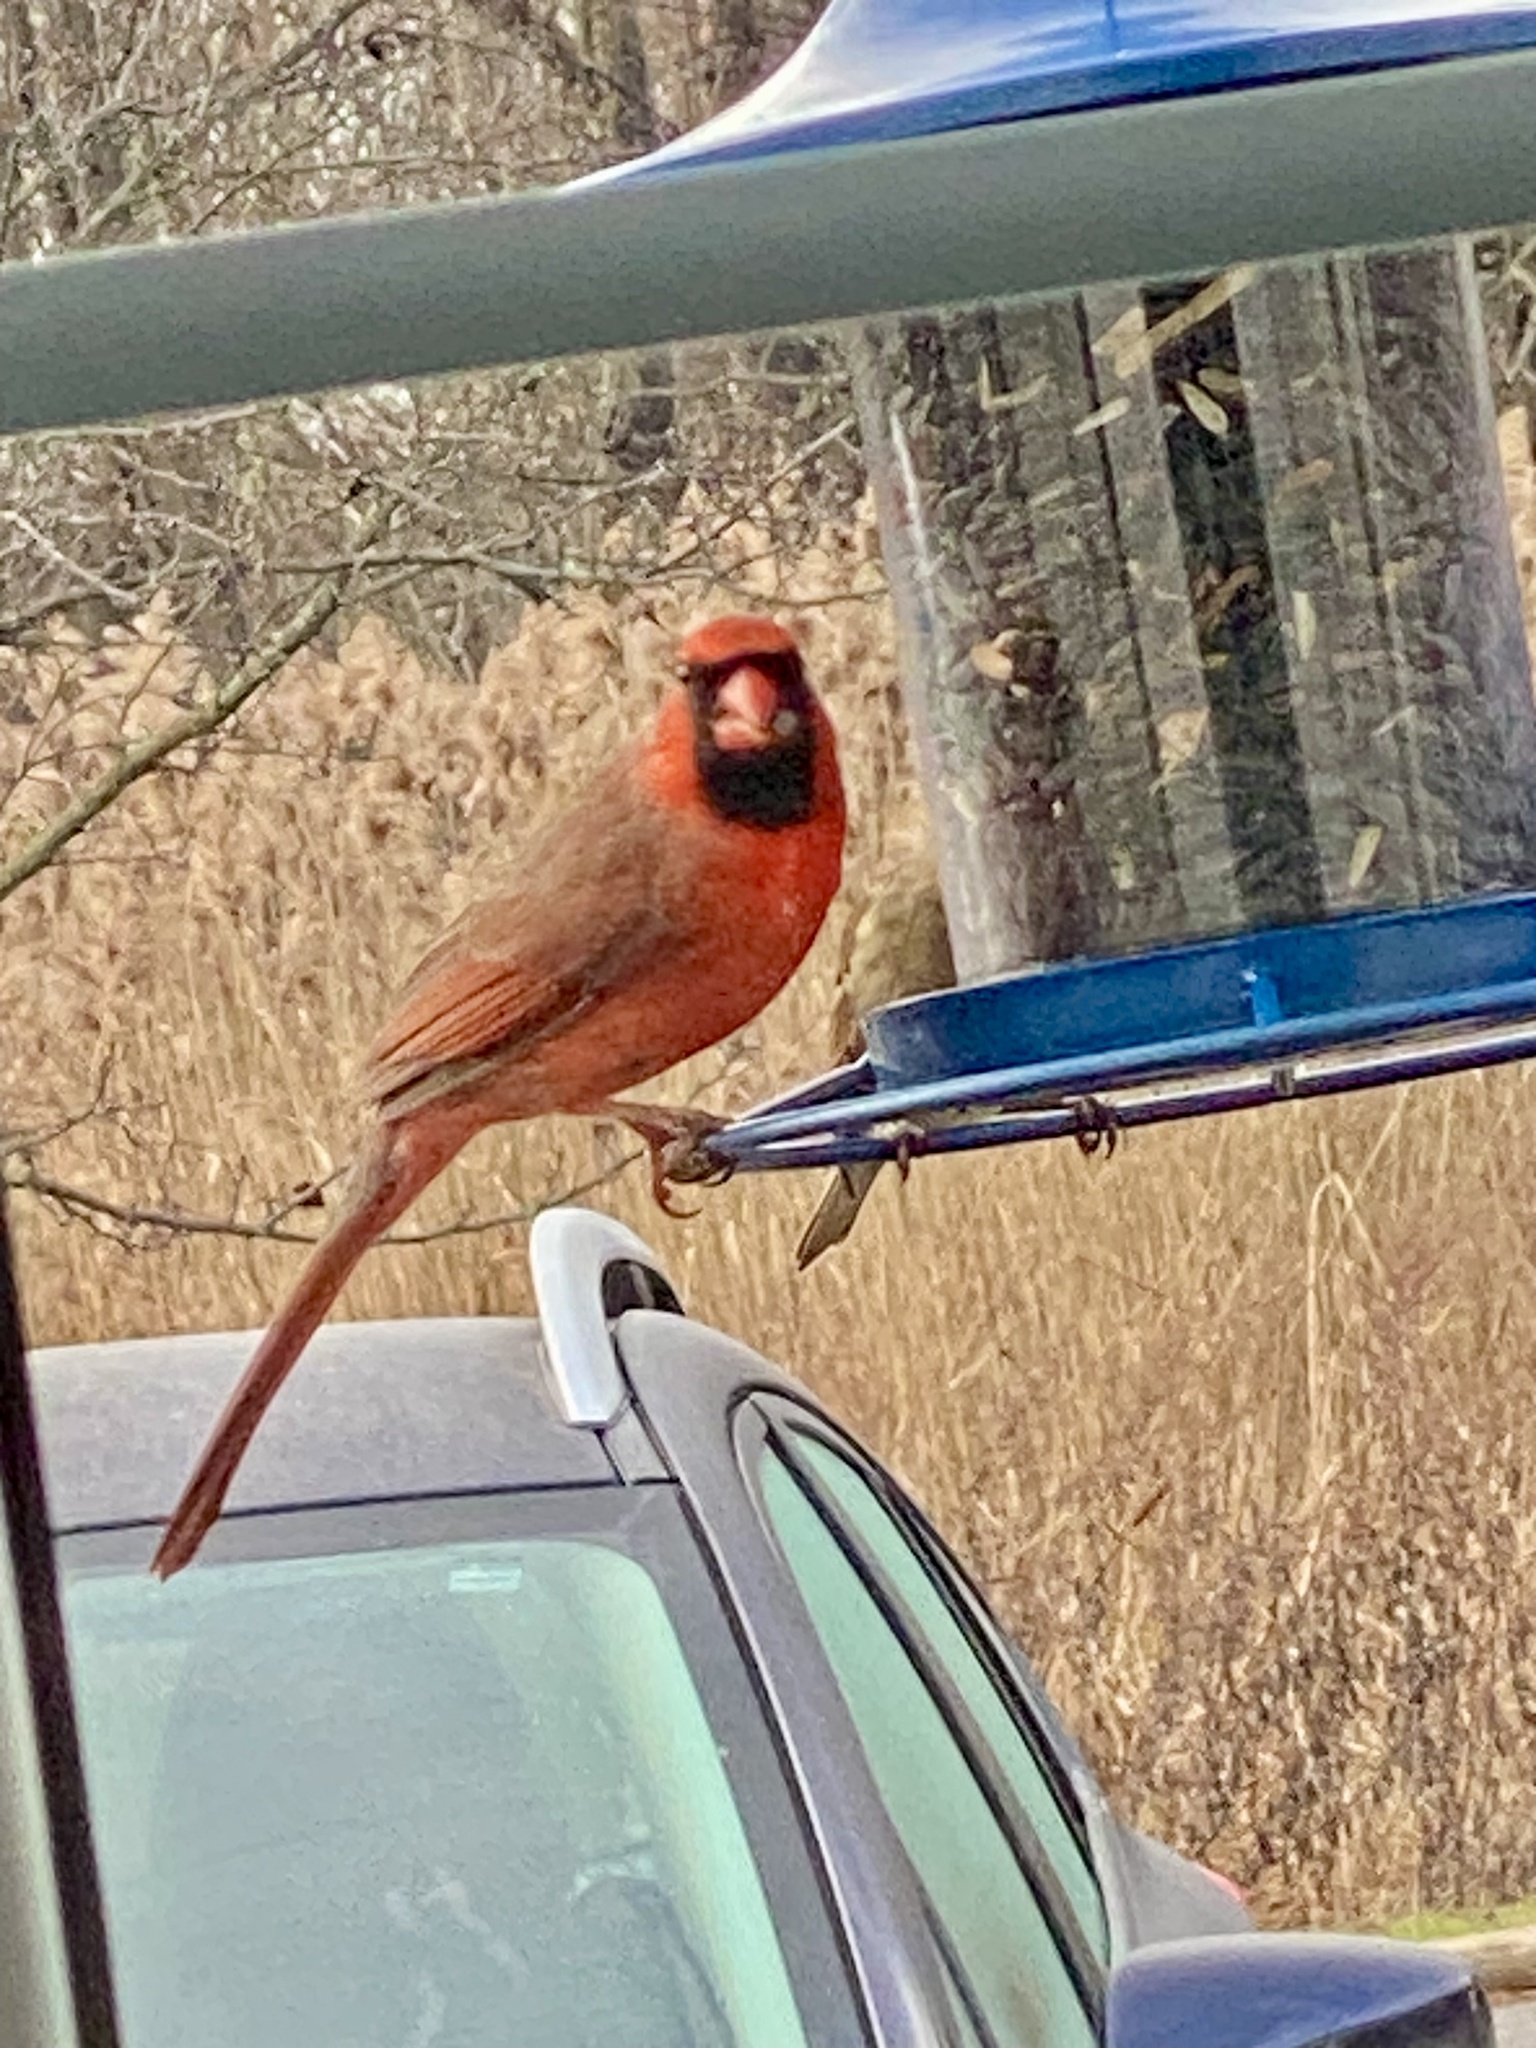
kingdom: Animalia
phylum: Chordata
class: Aves
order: Passeriformes
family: Cardinalidae
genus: Cardinalis
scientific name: Cardinalis cardinalis
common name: Northern cardinal
